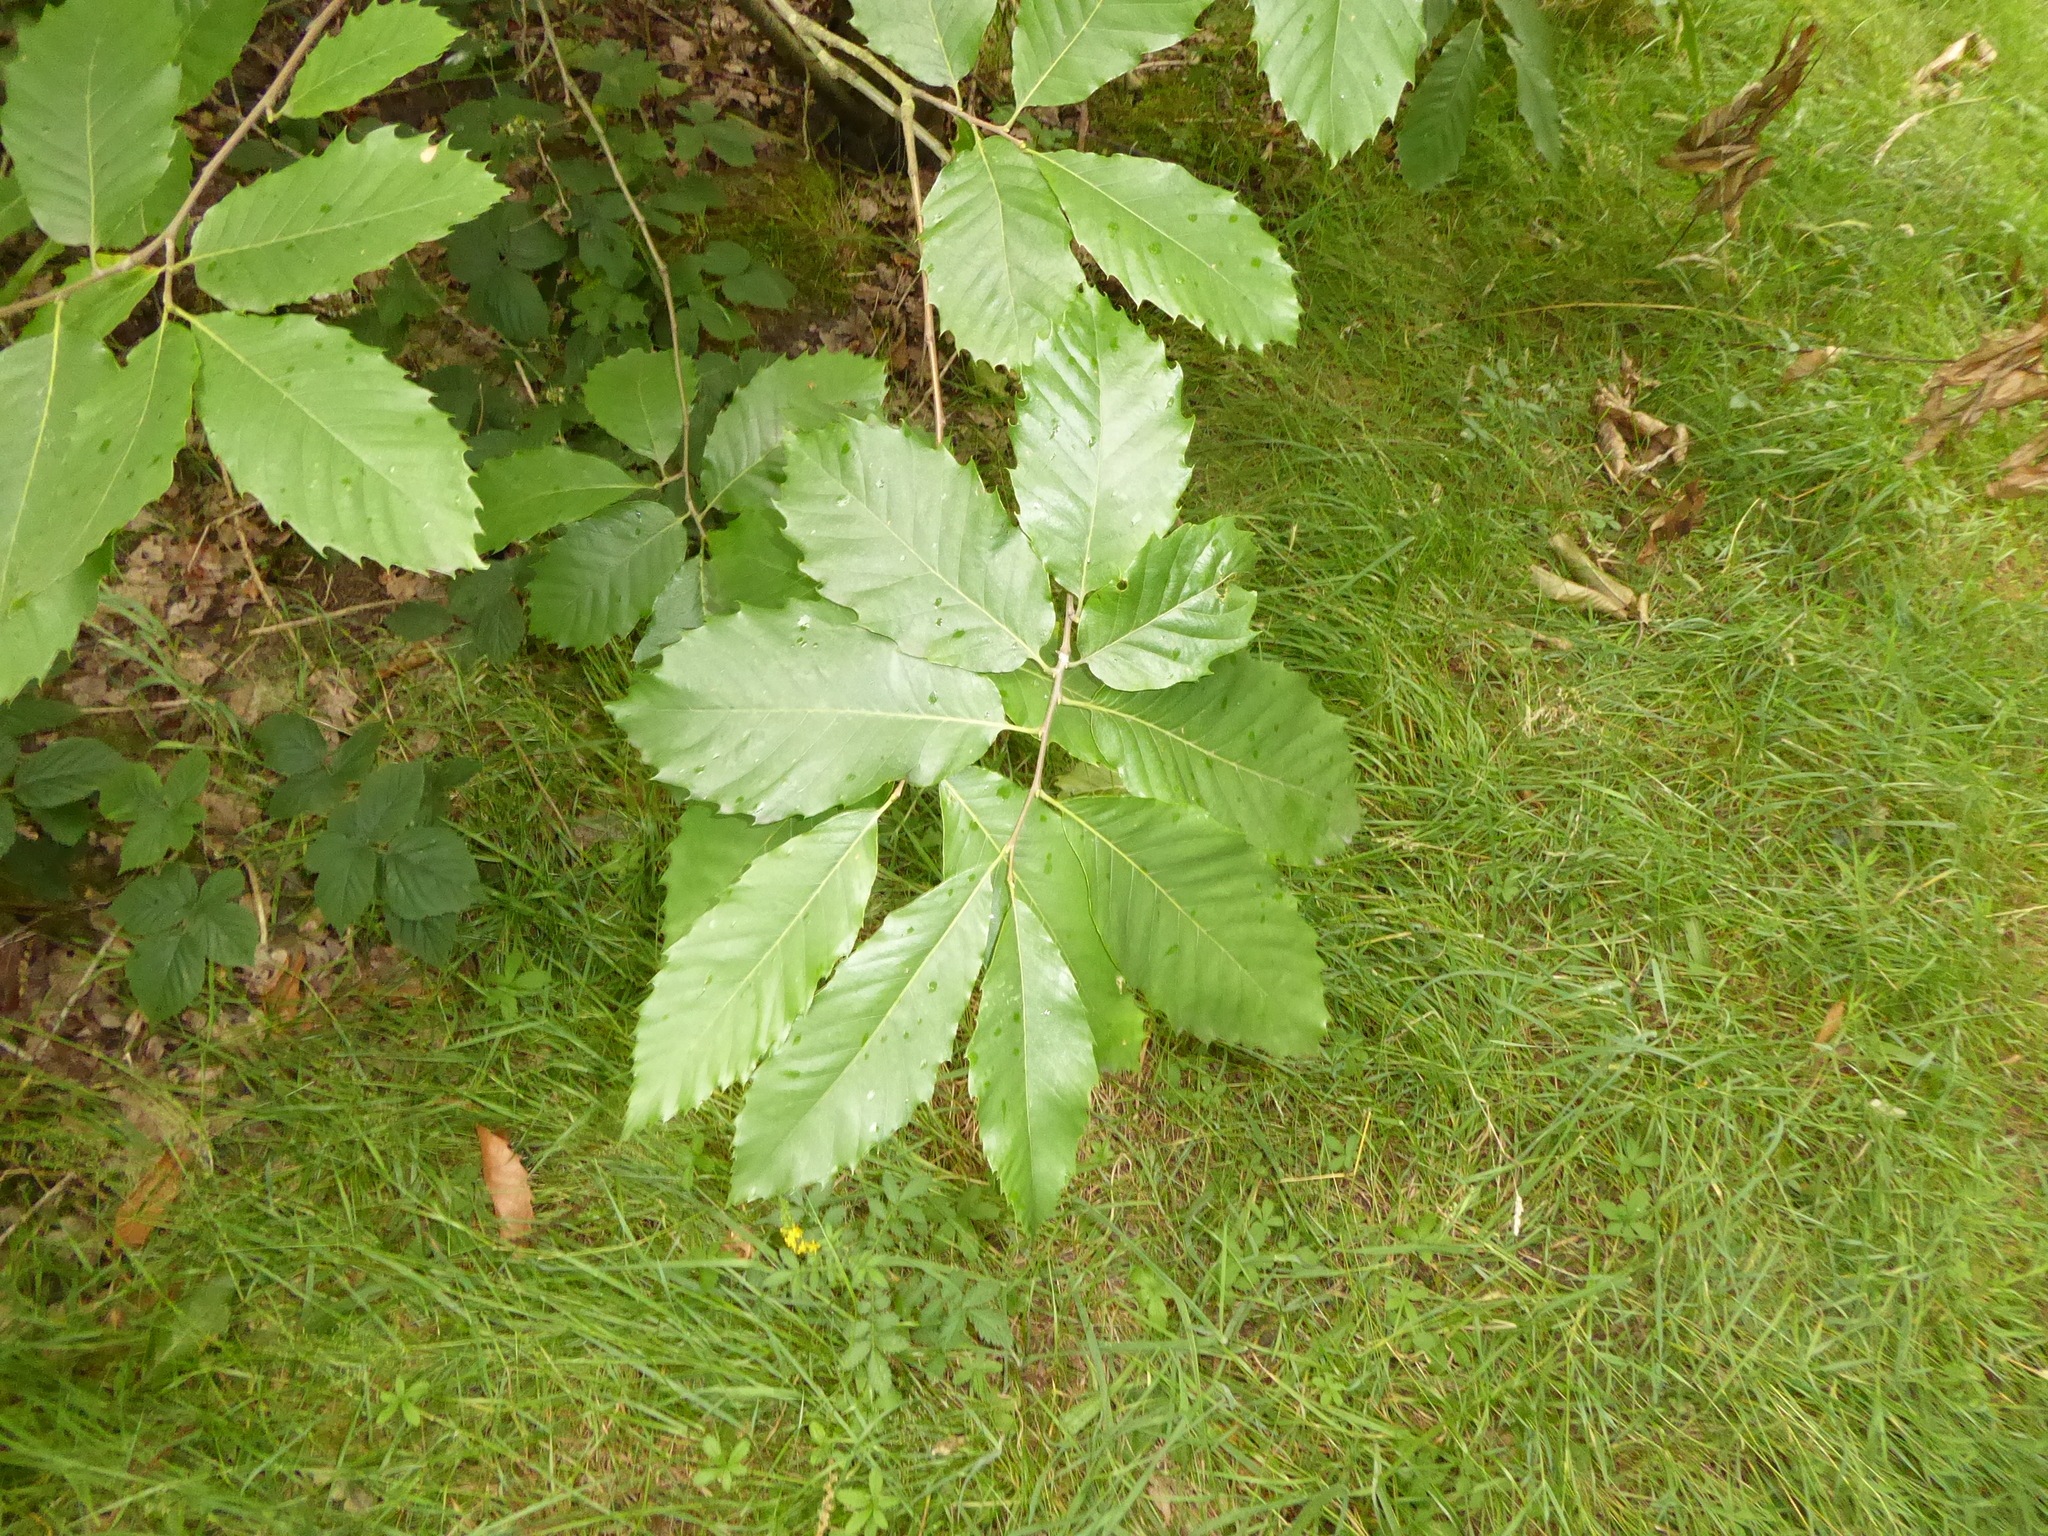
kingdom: Plantae
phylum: Tracheophyta
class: Magnoliopsida
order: Fagales
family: Fagaceae
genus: Castanea
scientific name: Castanea sativa
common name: Sweet chestnut
